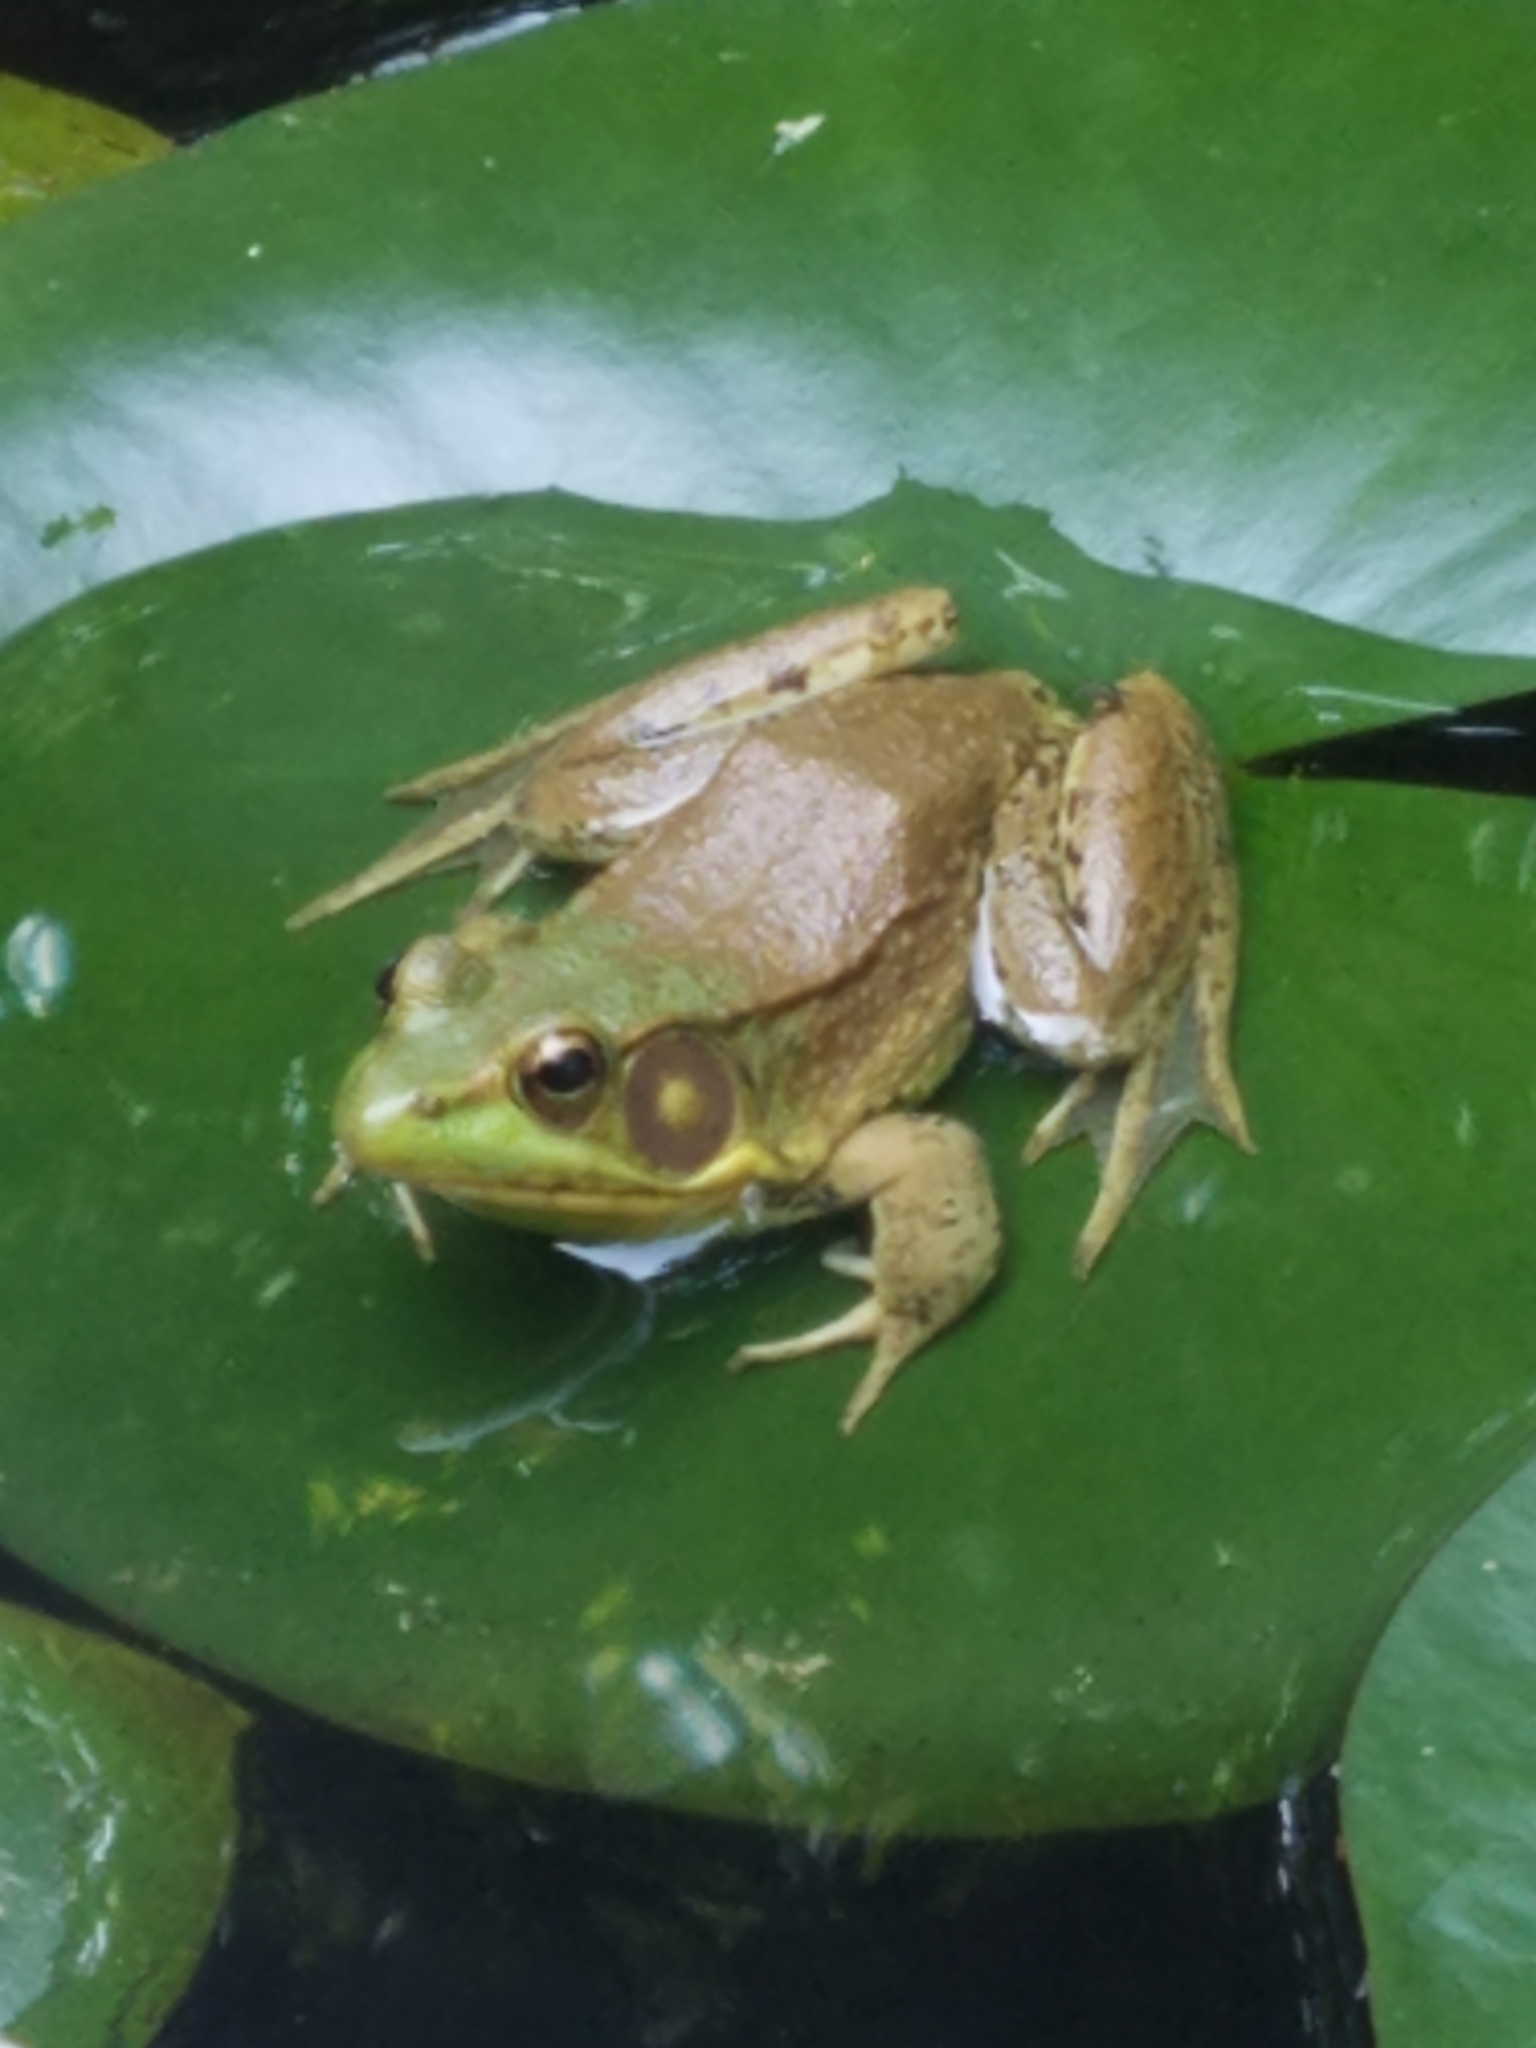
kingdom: Animalia
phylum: Chordata
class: Amphibia
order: Anura
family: Ranidae
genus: Lithobates
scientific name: Lithobates clamitans
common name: Green frog
